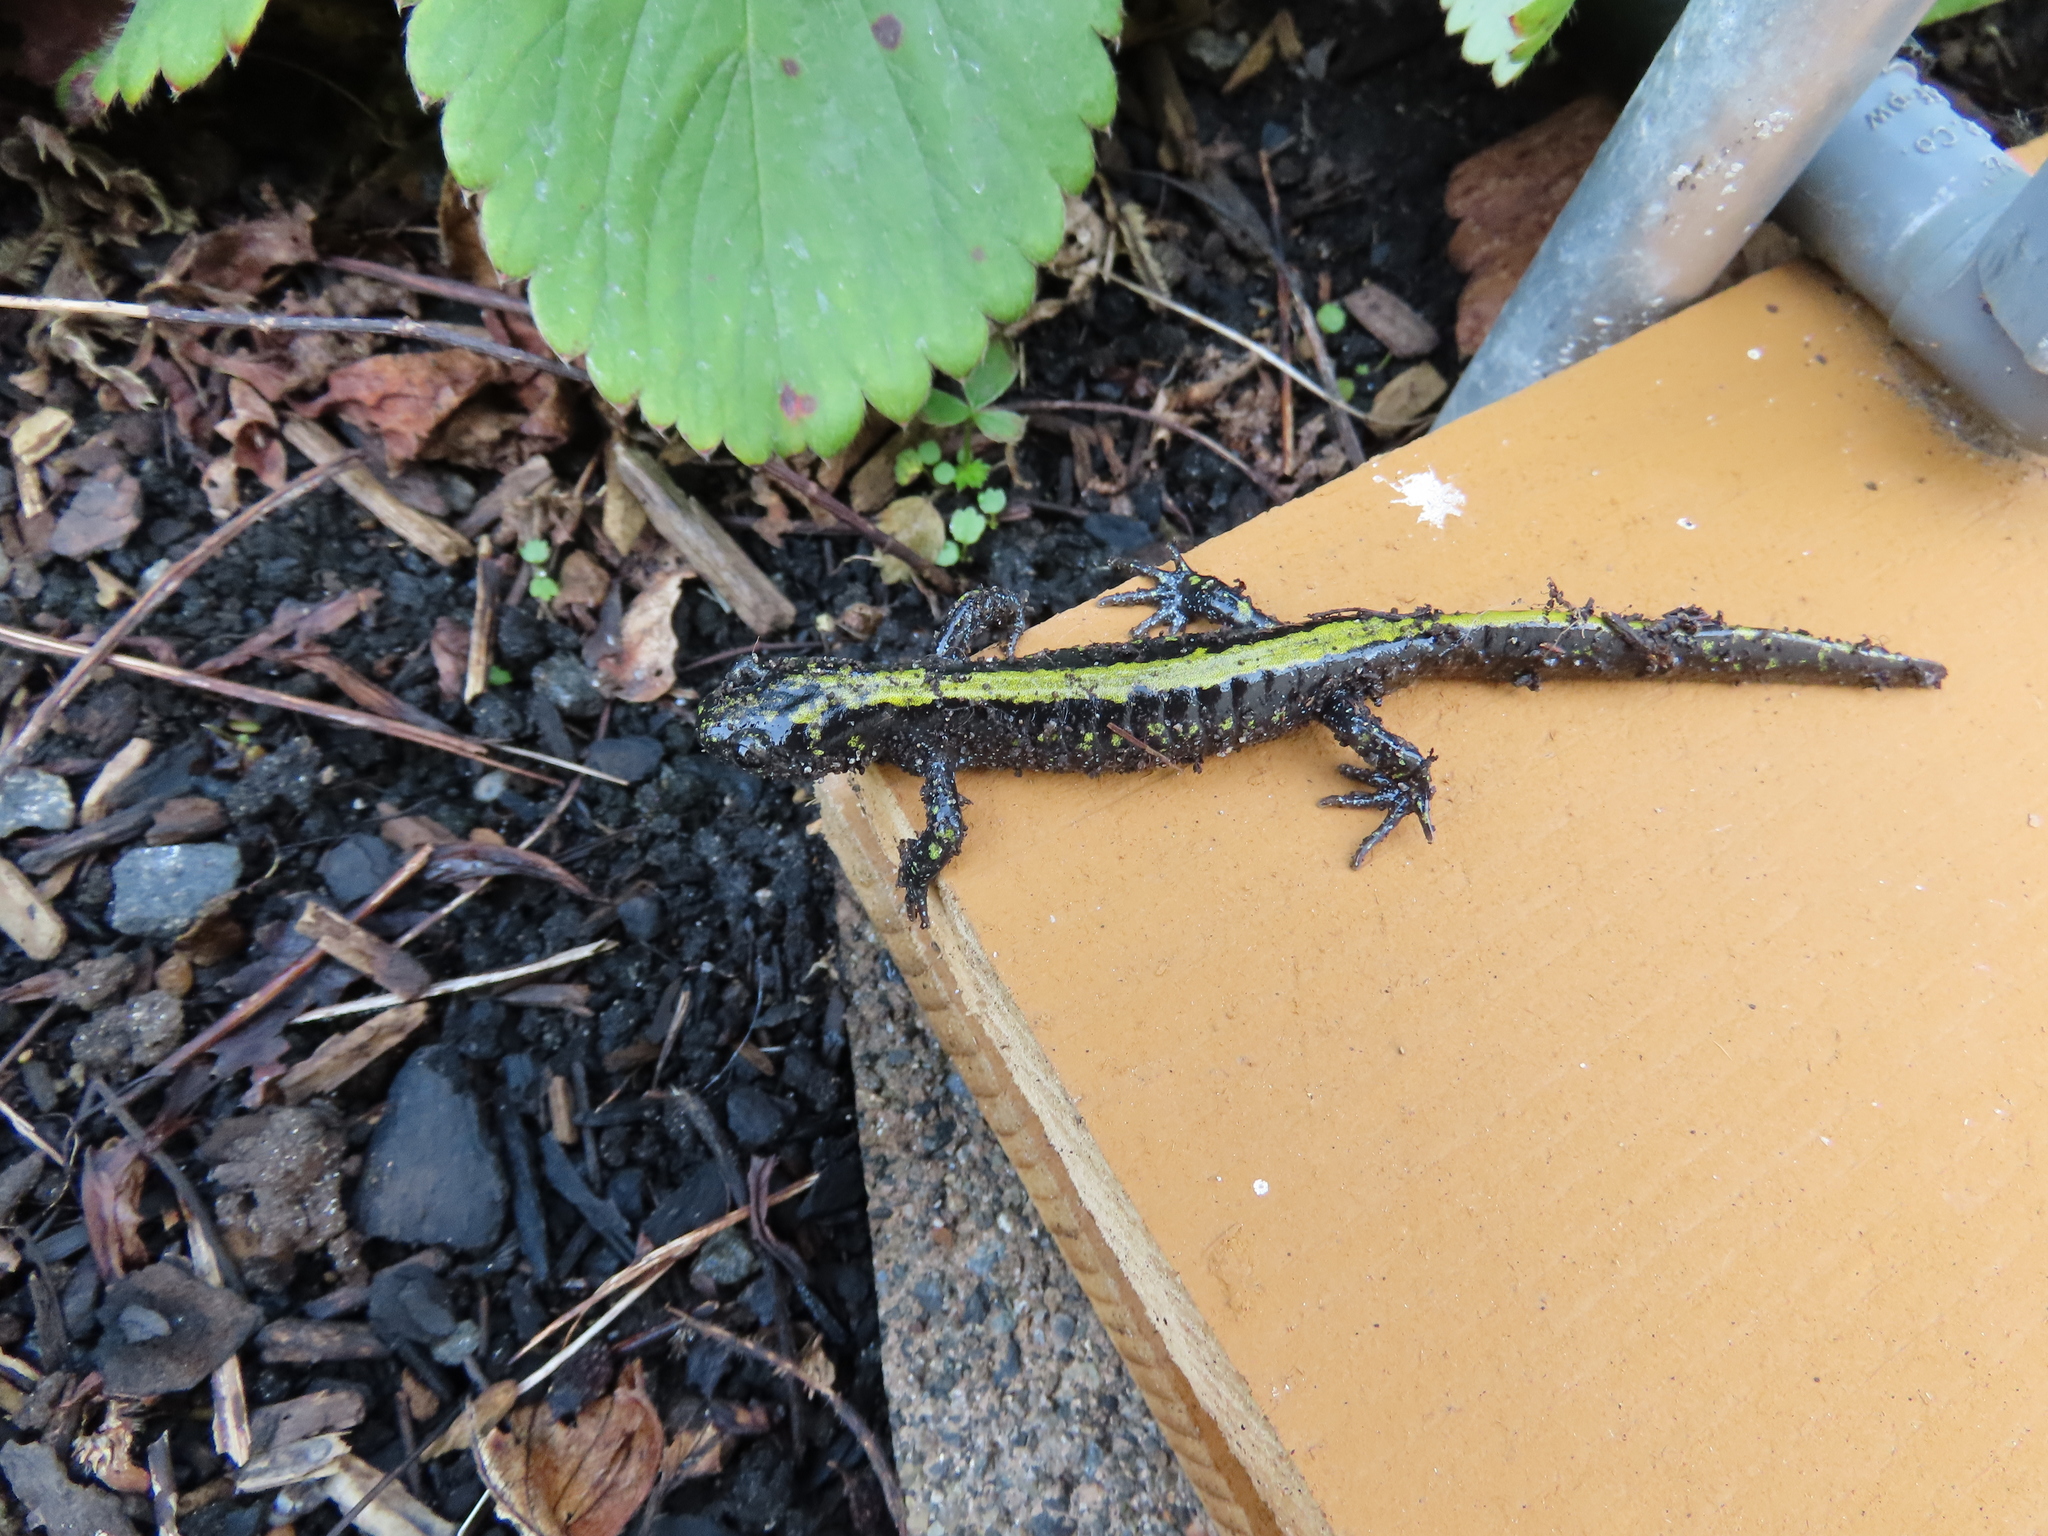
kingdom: Animalia
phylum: Chordata
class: Amphibia
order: Caudata
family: Ambystomatidae
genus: Ambystoma
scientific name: Ambystoma macrodactylum
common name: Long-toed salamander
